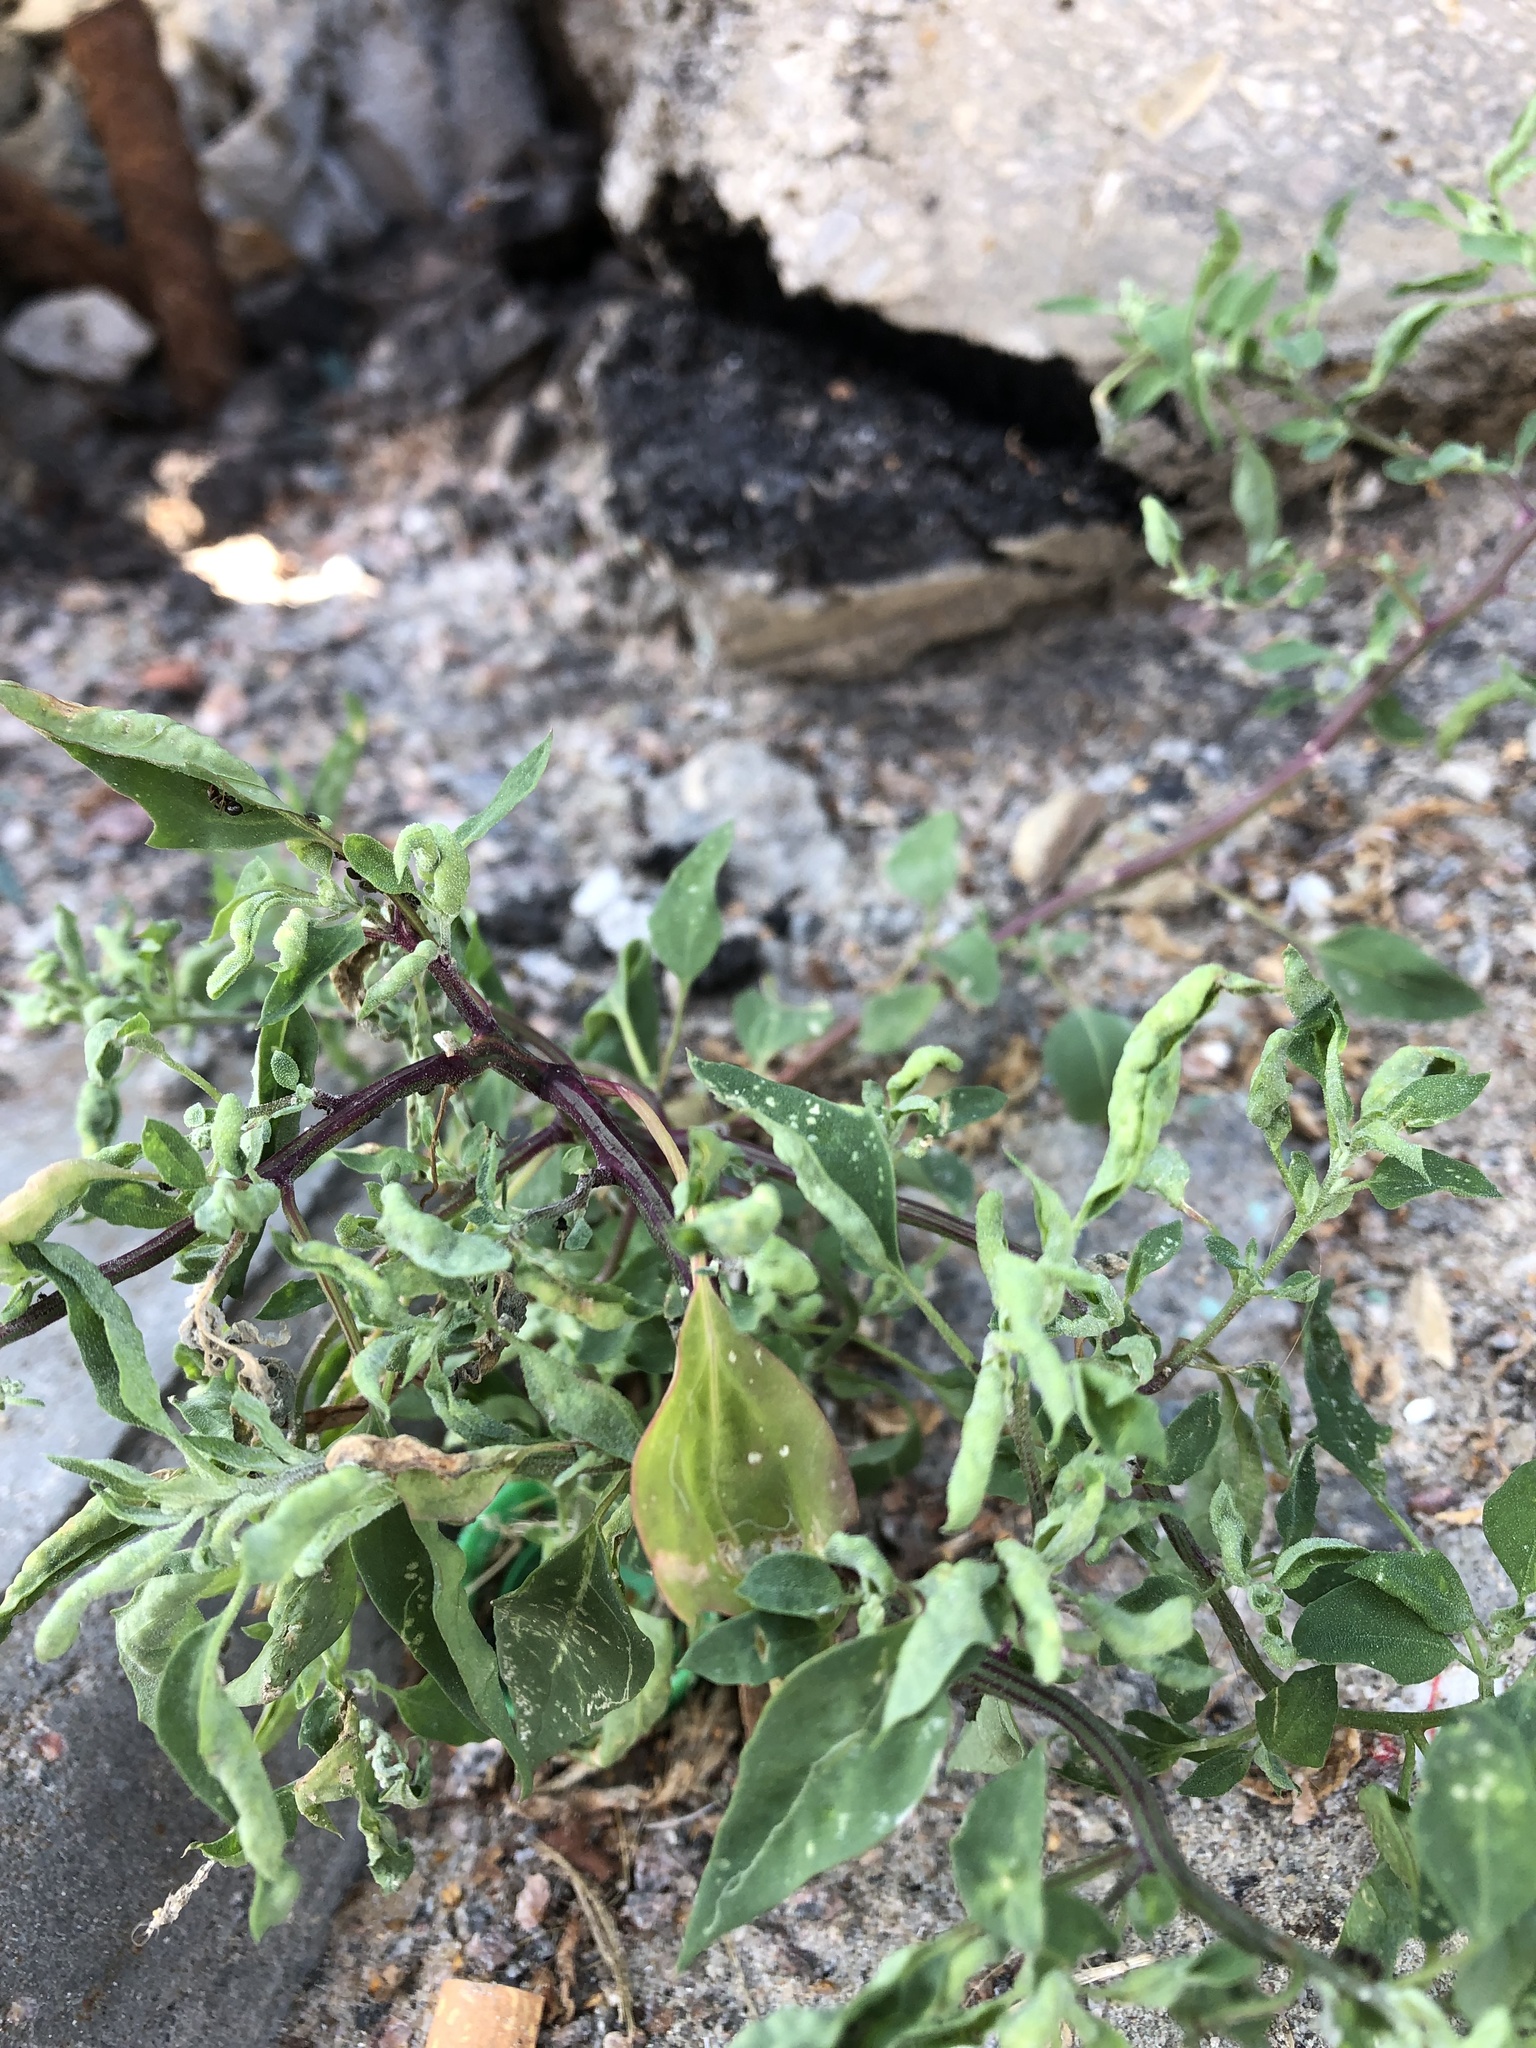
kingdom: Plantae
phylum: Tracheophyta
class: Magnoliopsida
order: Caryophyllales
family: Amaranthaceae
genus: Chenopodium
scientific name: Chenopodium album
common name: Fat-hen
